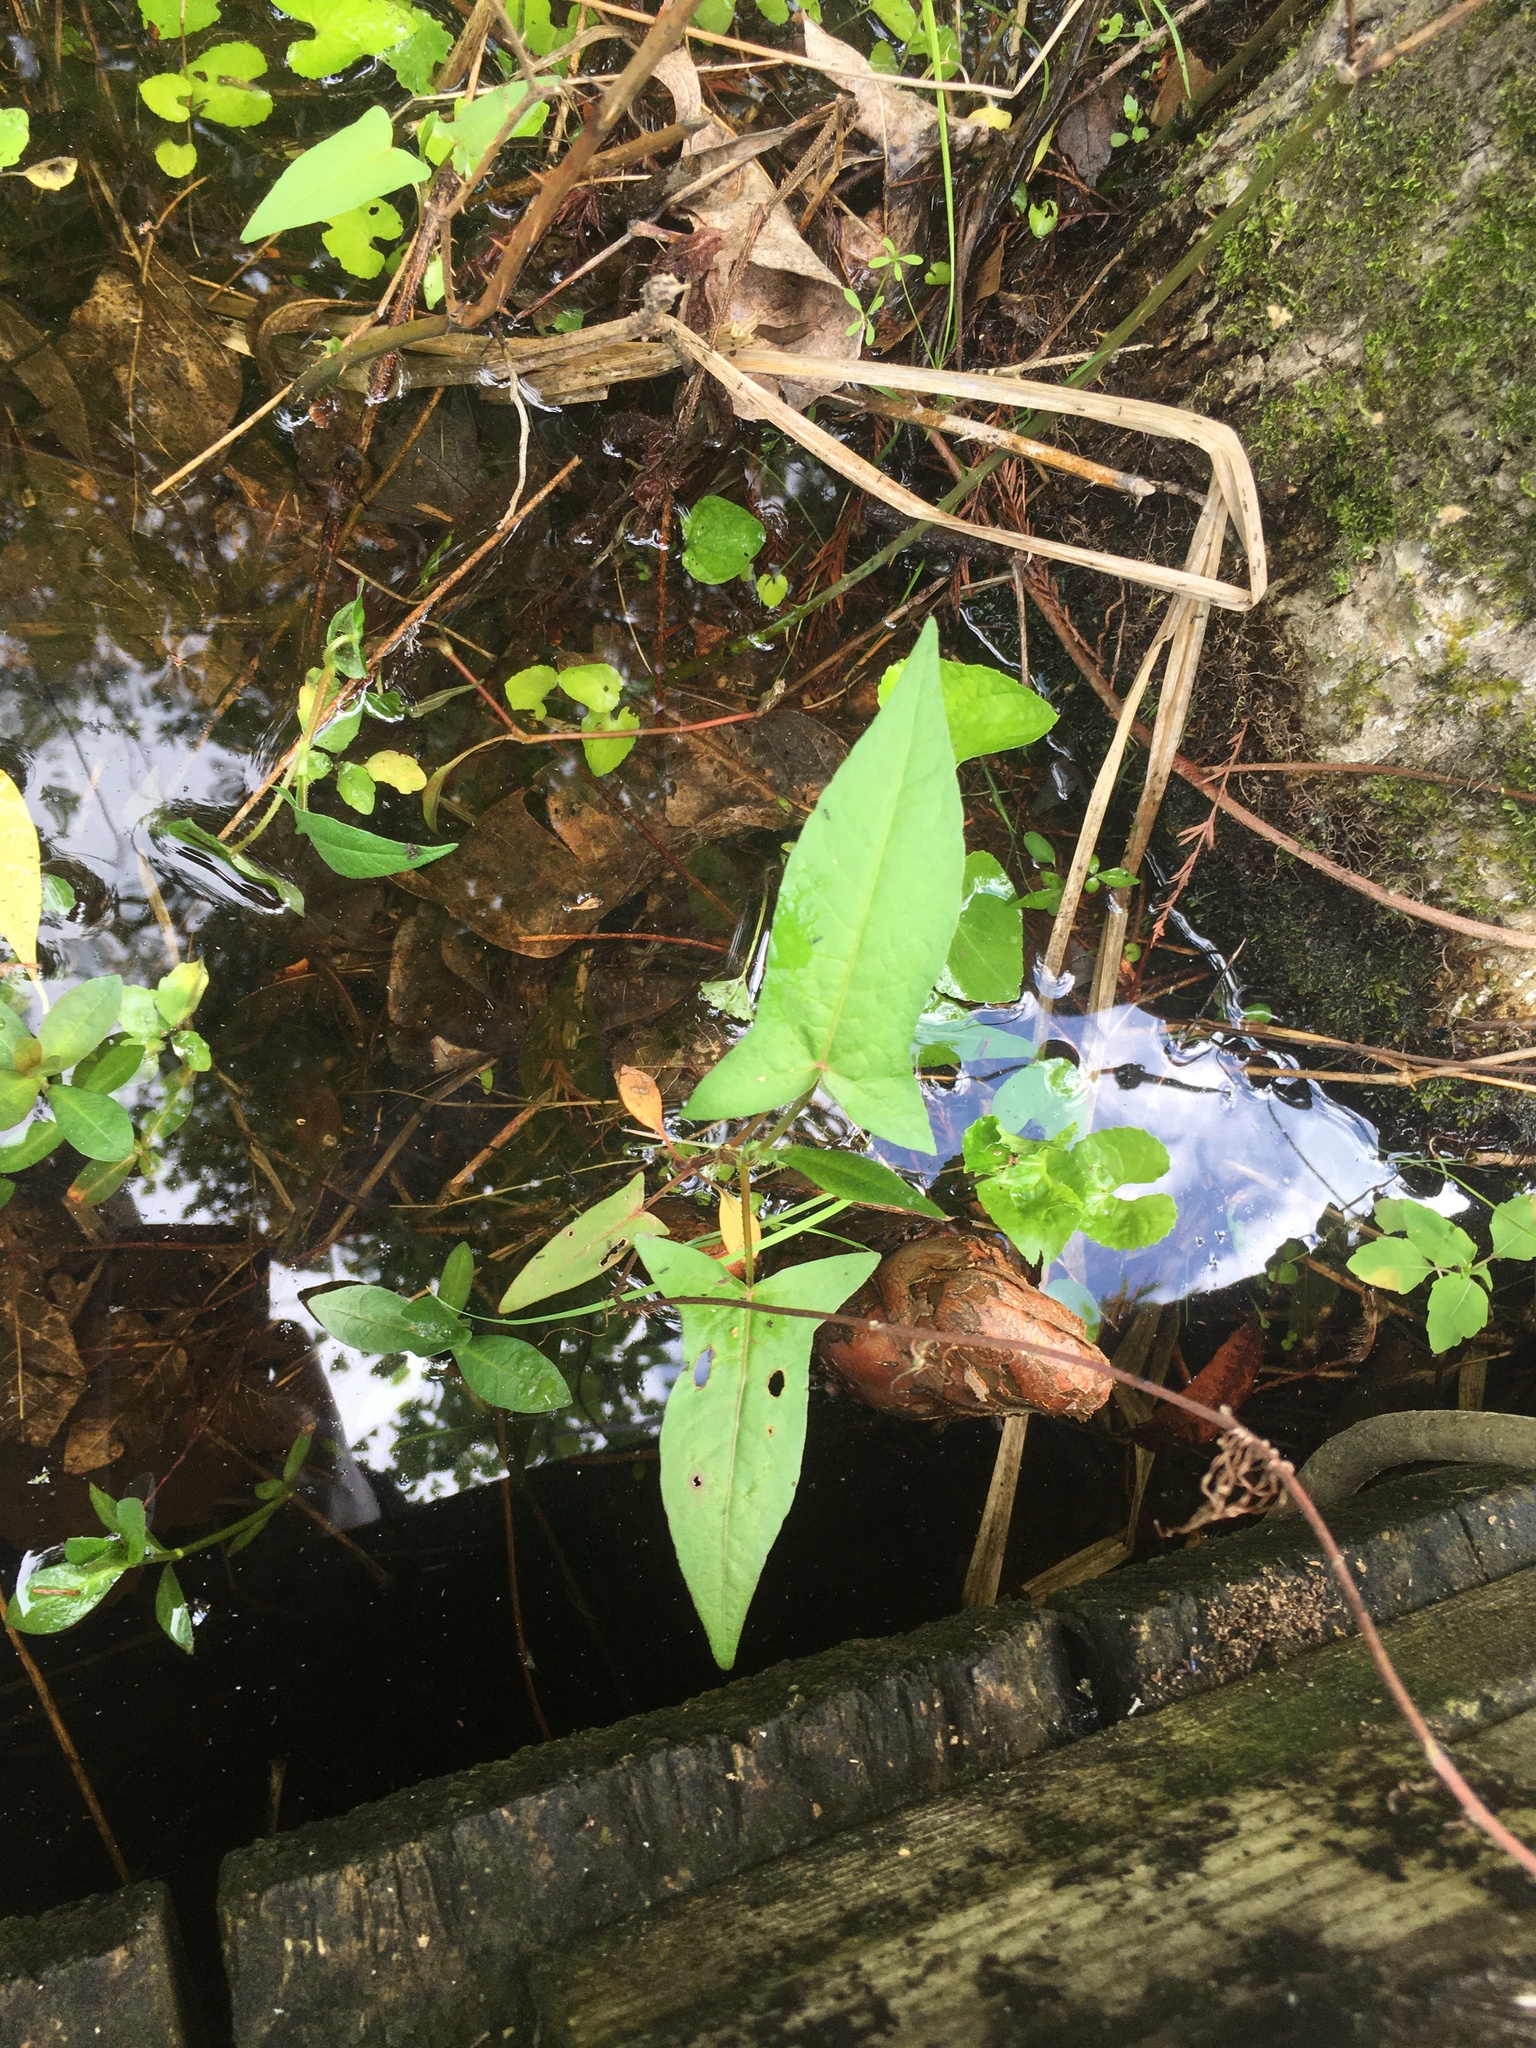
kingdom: Plantae
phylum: Tracheophyta
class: Magnoliopsida
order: Caryophyllales
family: Polygonaceae
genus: Persicaria
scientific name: Persicaria arifolia
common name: Halberd-leaved tear-thumb
